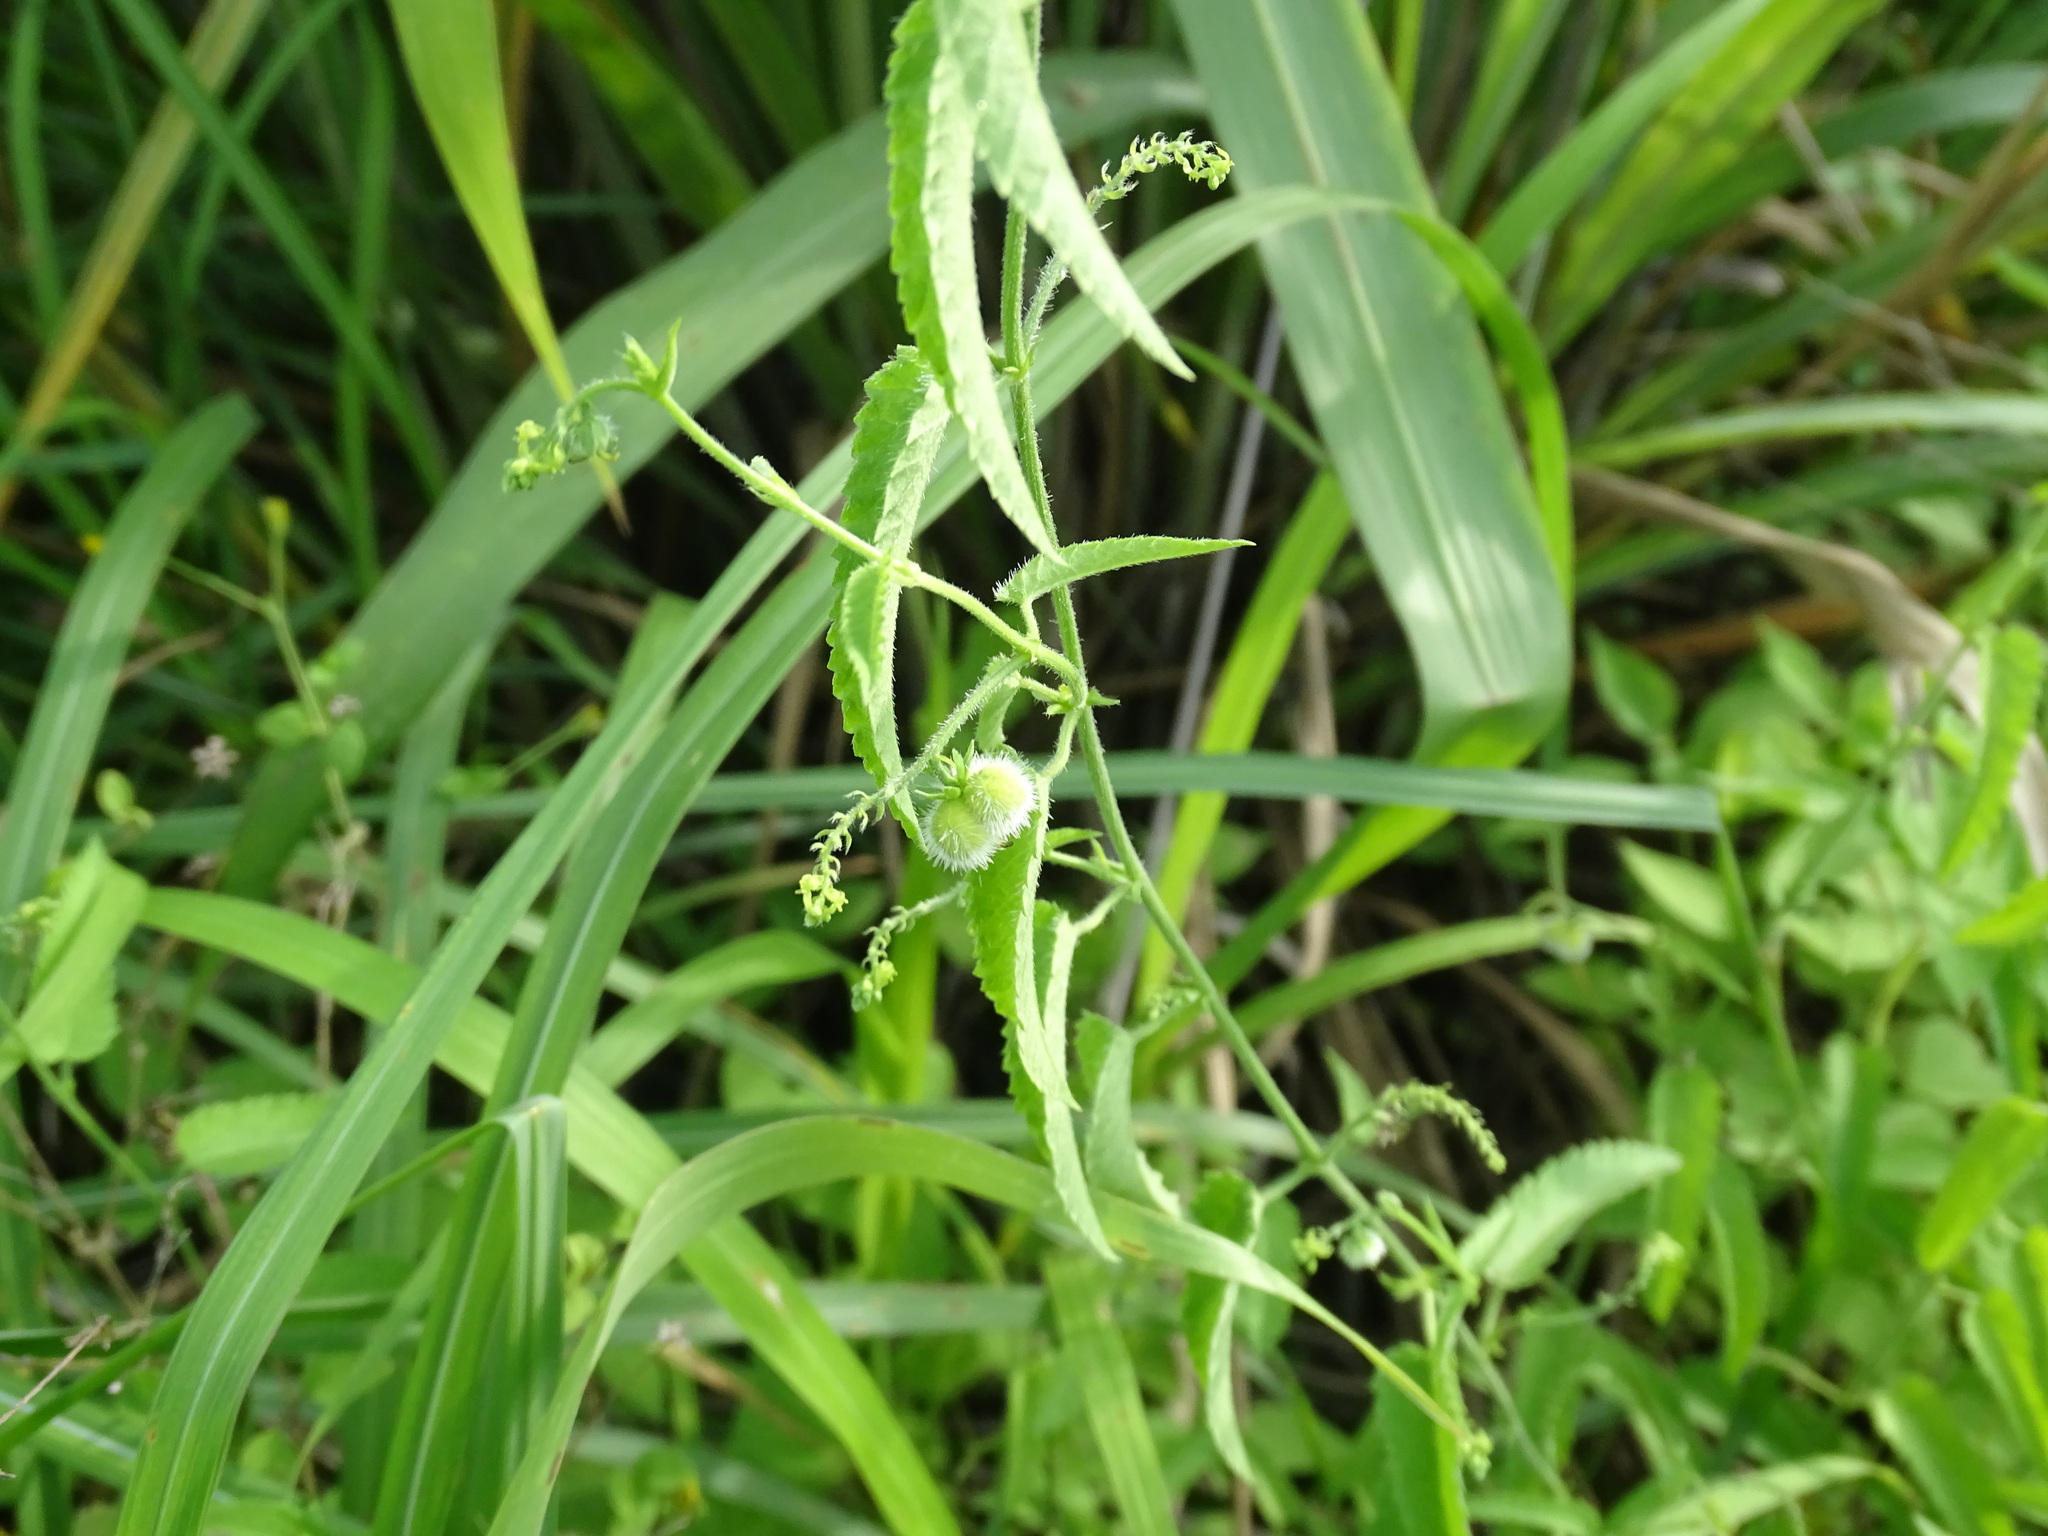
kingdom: Plantae
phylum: Tracheophyta
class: Magnoliopsida
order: Malpighiales
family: Euphorbiaceae
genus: Tragia
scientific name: Tragia nepetifolia
